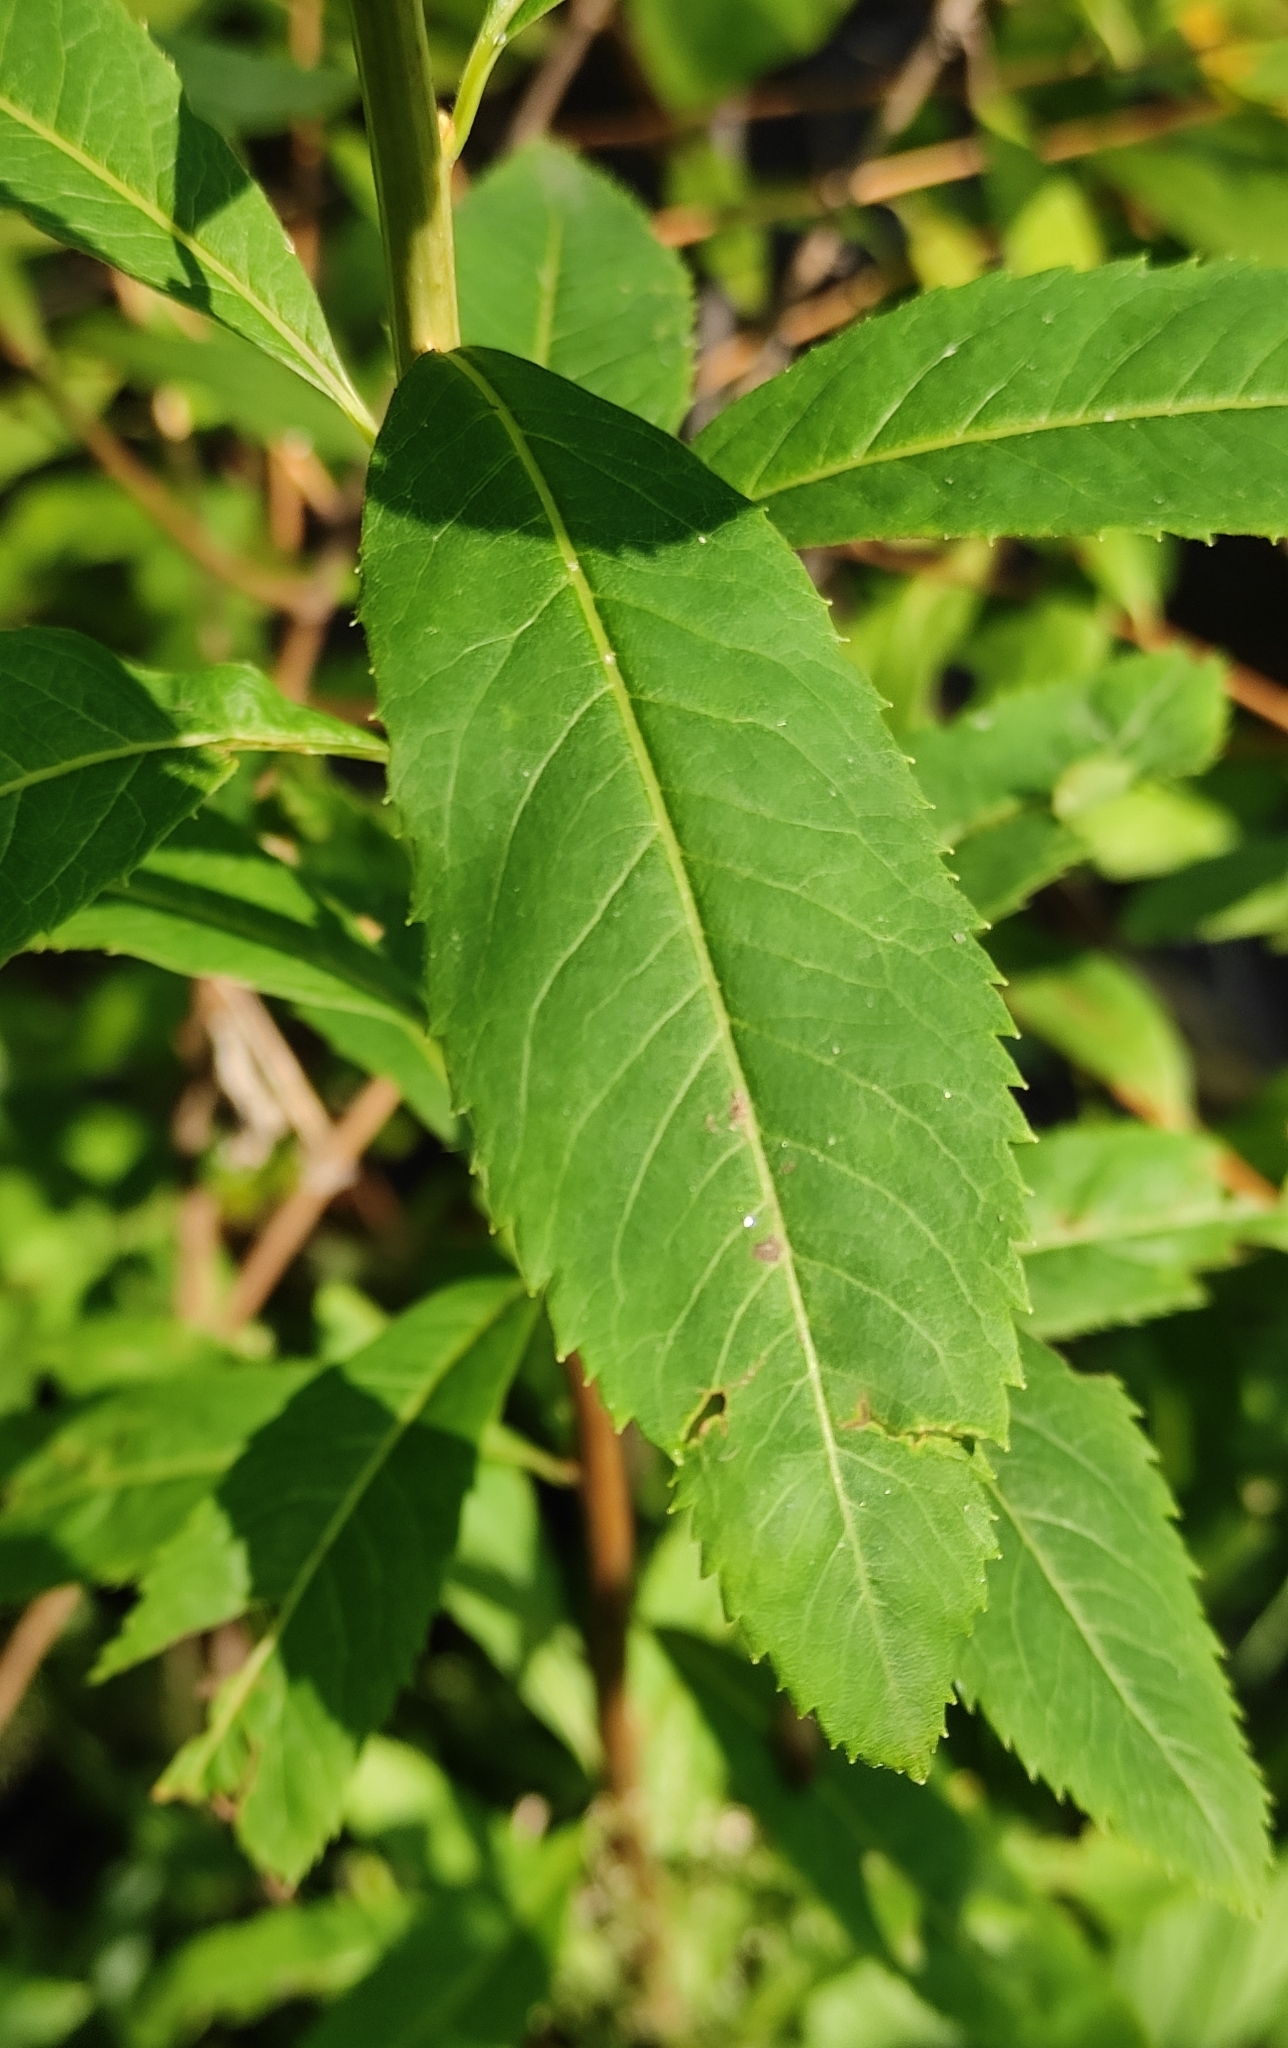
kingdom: Plantae
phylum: Tracheophyta
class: Magnoliopsida
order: Rosales
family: Rosaceae
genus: Spiraea
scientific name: Spiraea salicifolia
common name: Bridewort
